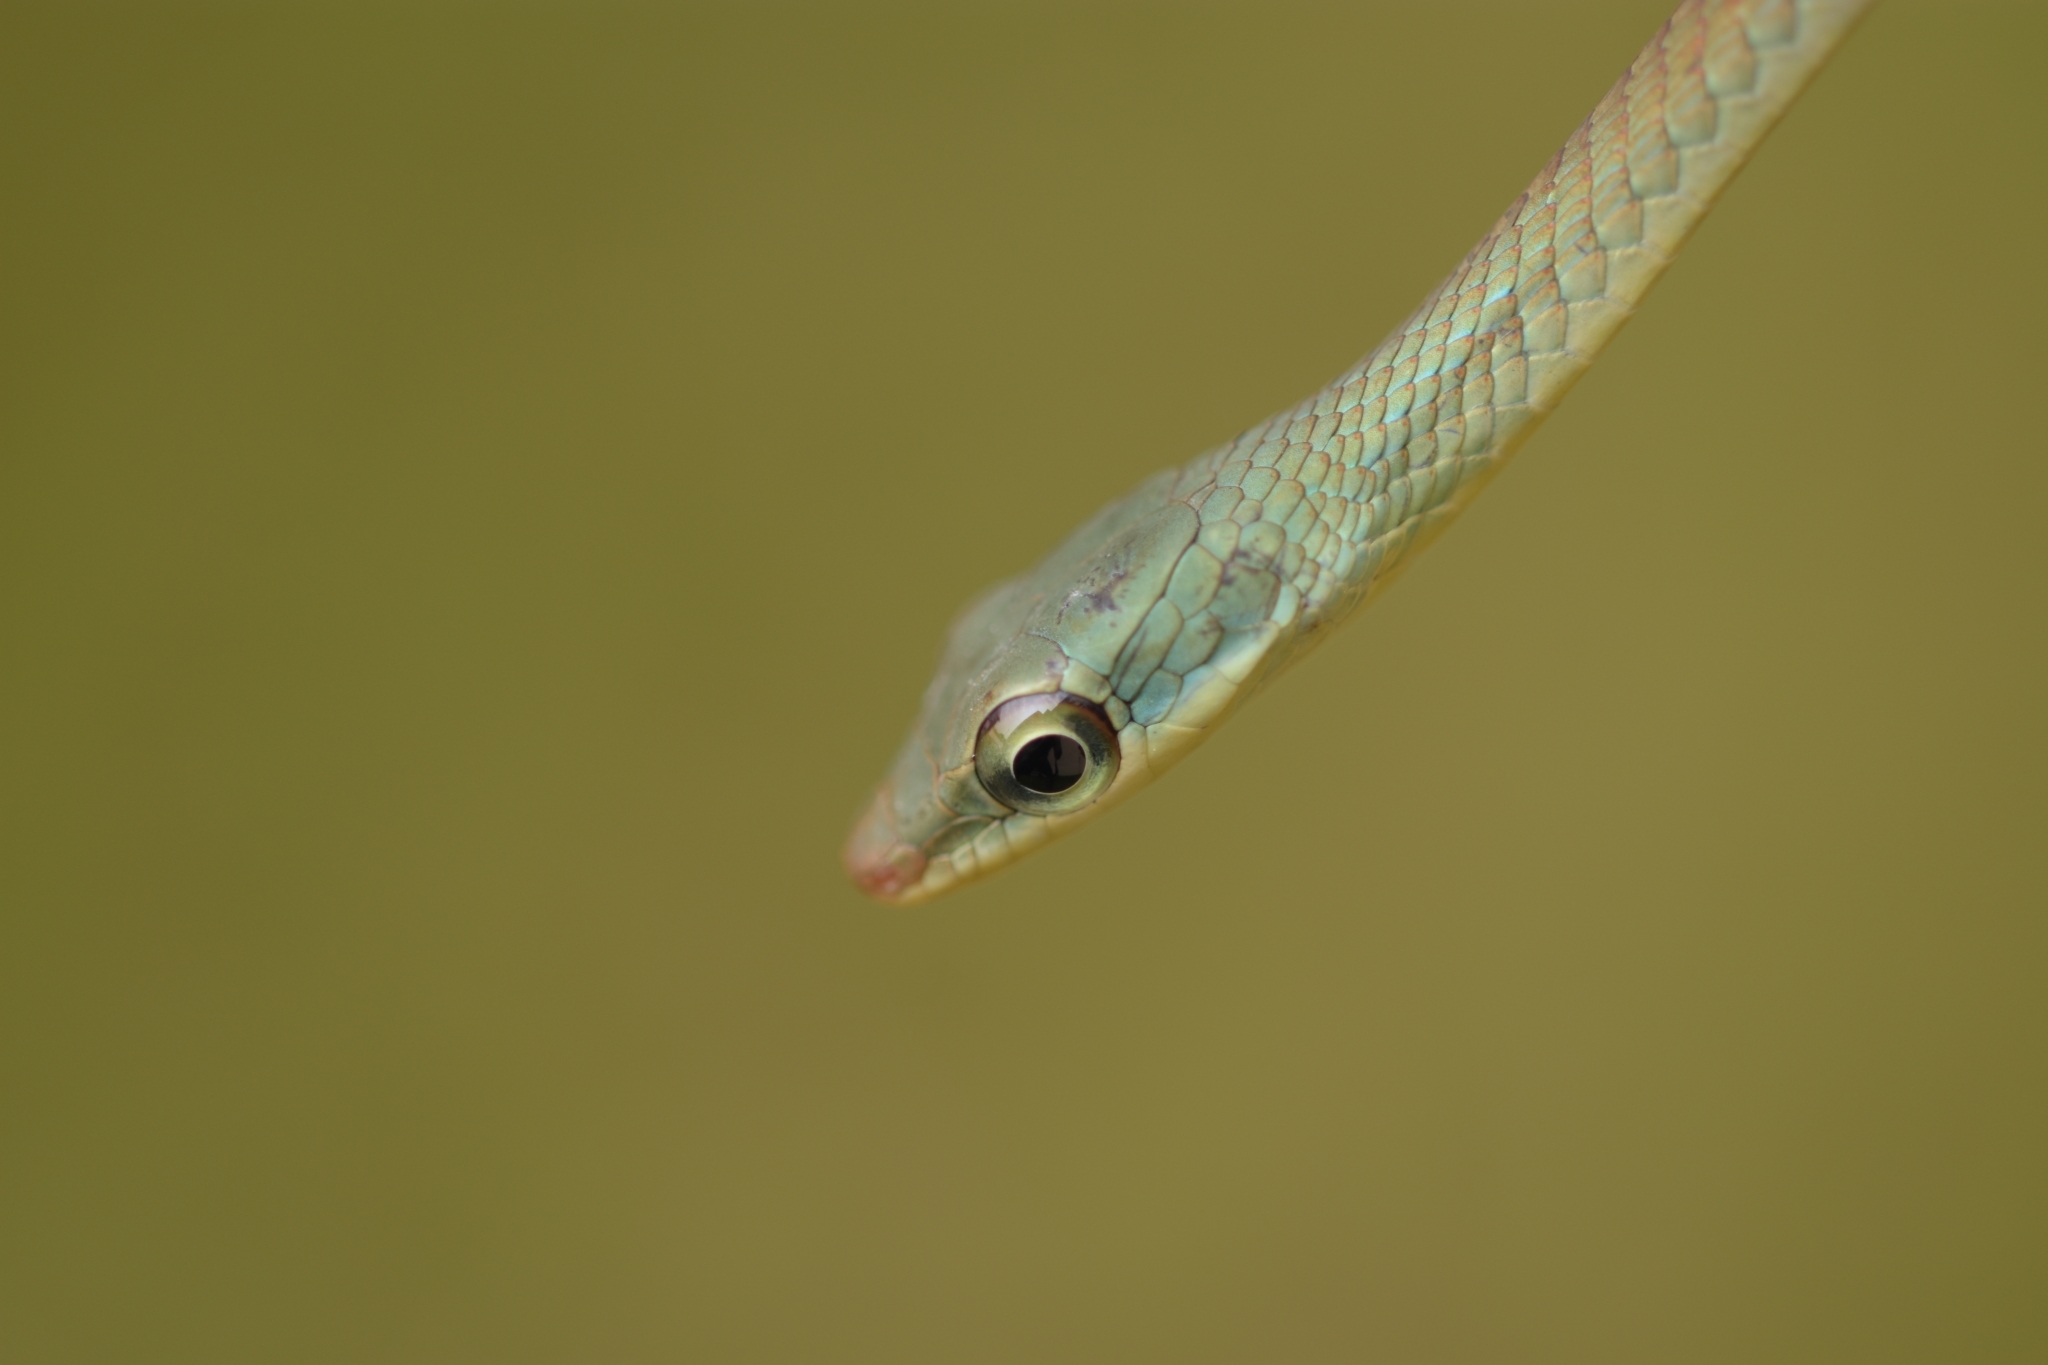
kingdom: Animalia
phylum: Chordata
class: Squamata
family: Colubridae
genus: Dendrelaphis
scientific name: Dendrelaphis grandoculis
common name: Southern bronzeback
